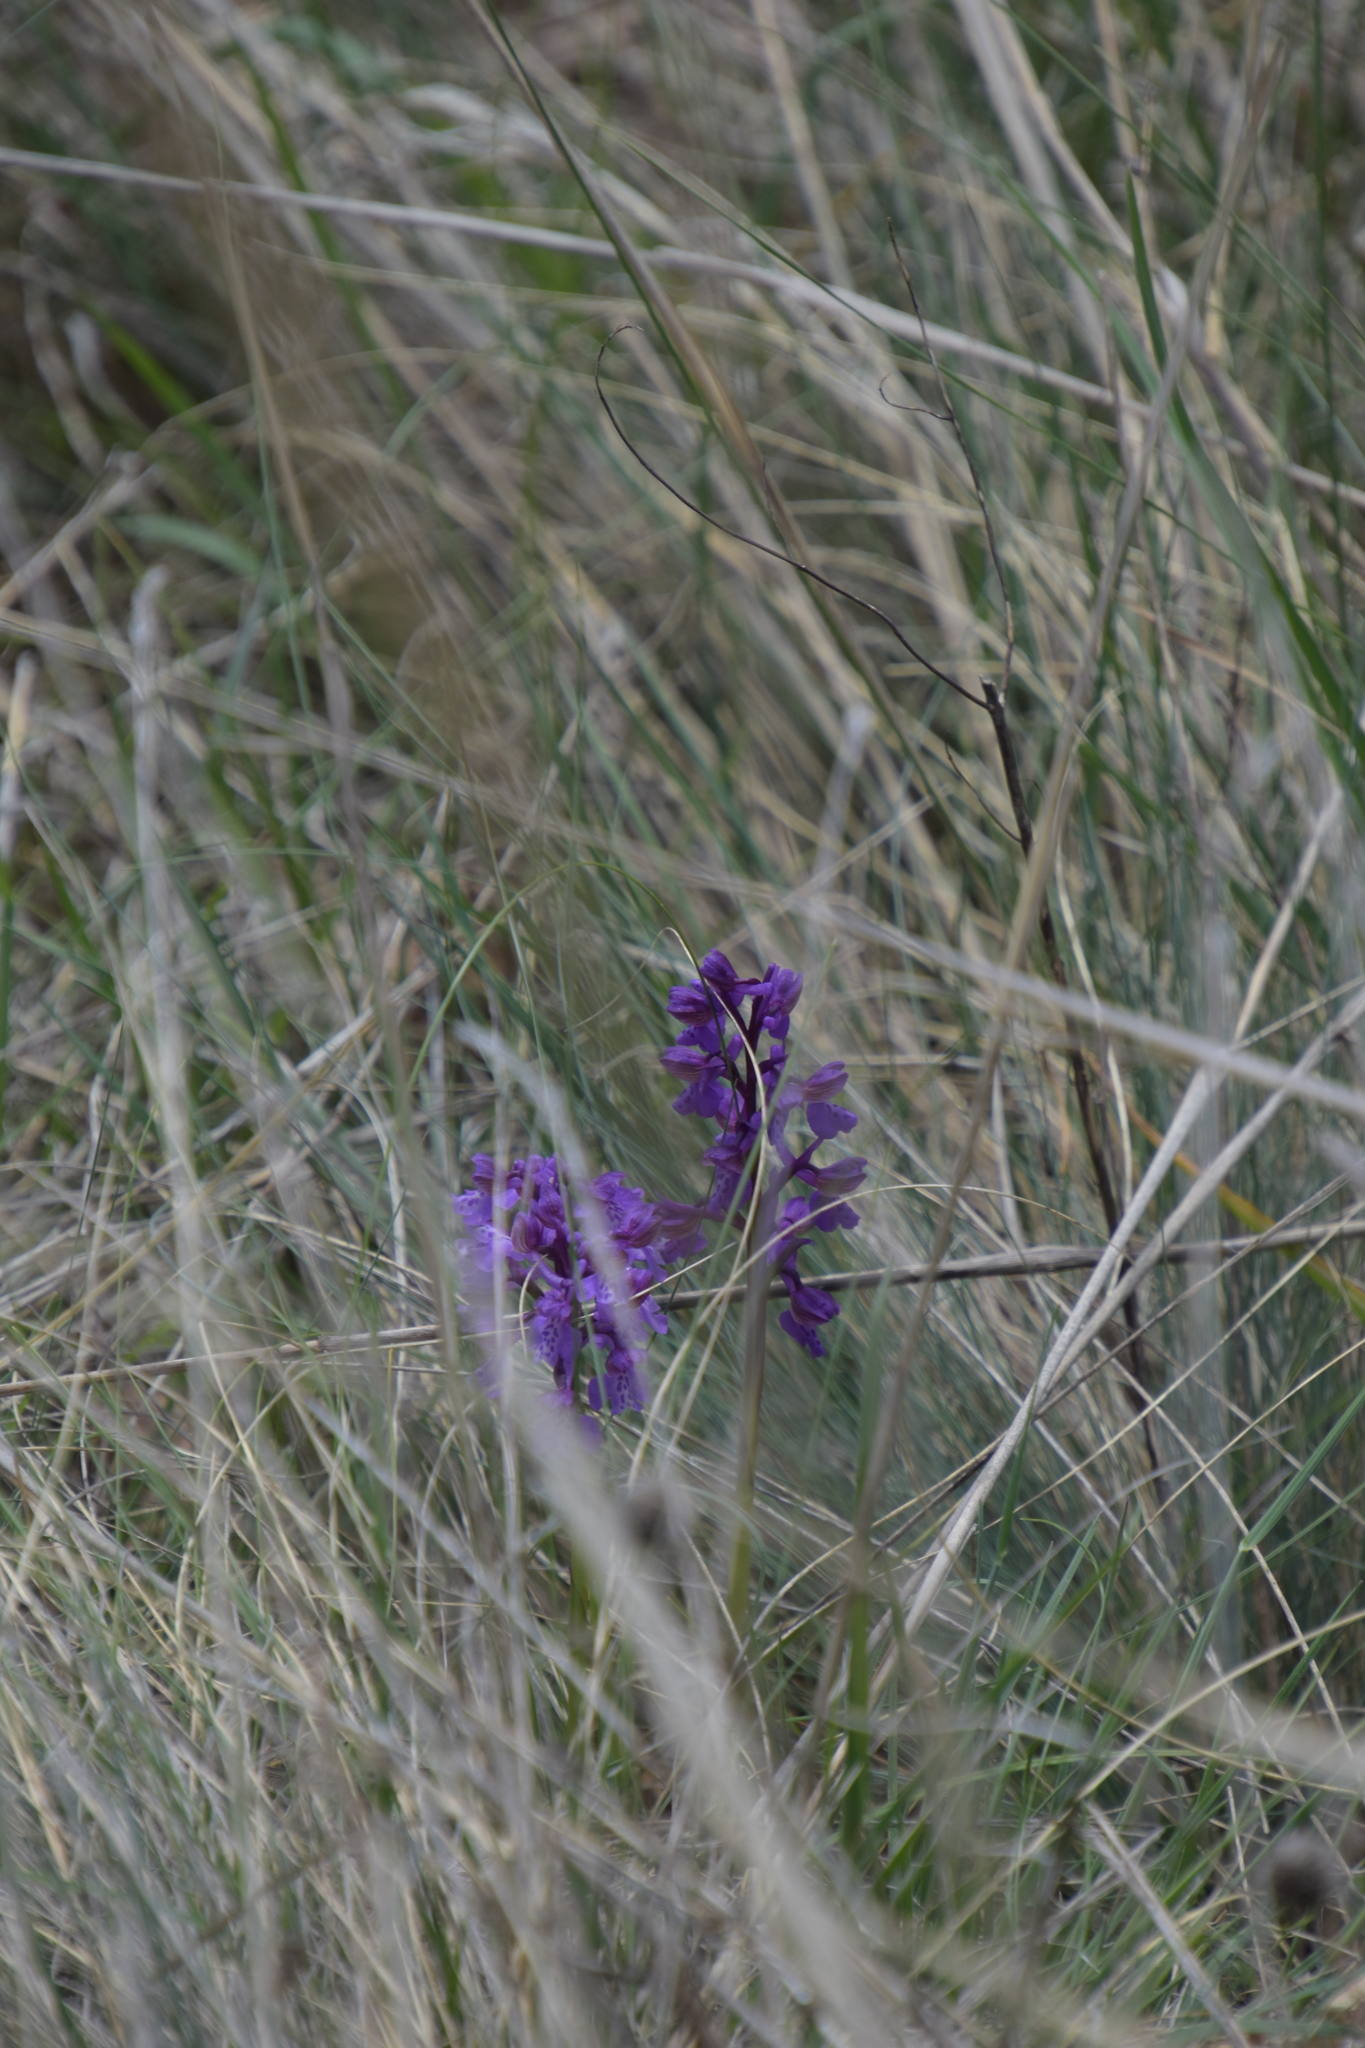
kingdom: Plantae
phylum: Tracheophyta
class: Liliopsida
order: Asparagales
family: Orchidaceae
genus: Anacamptis
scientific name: Anacamptis morio
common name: Green-winged orchid
